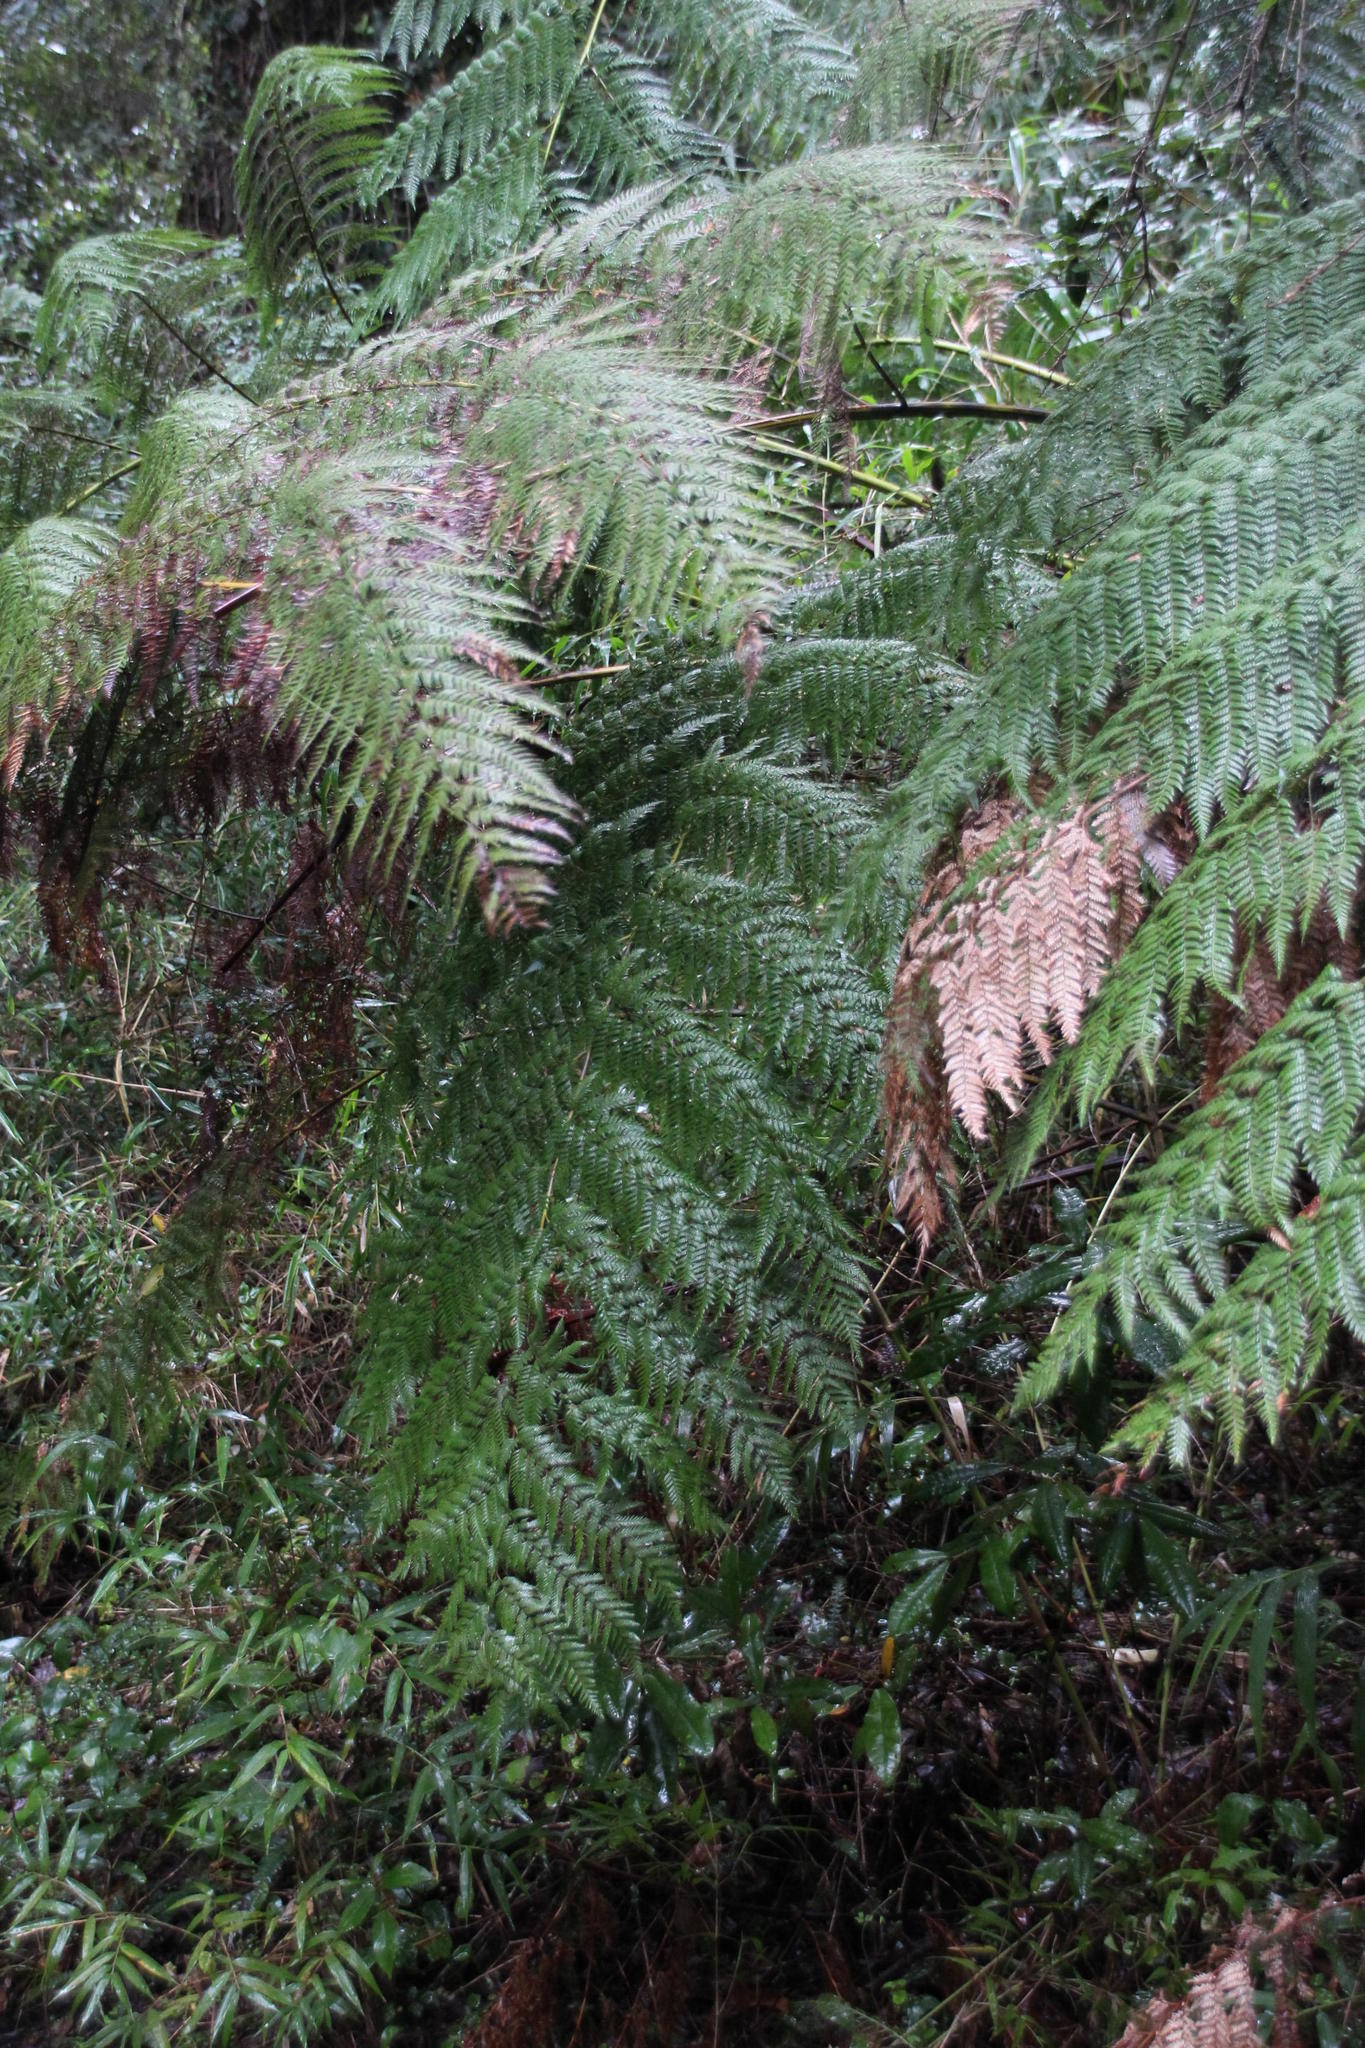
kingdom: Plantae
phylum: Tracheophyta
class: Polypodiopsida
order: Cyatheales
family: Dicksoniaceae
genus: Lophosoria
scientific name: Lophosoria quadripinnata
